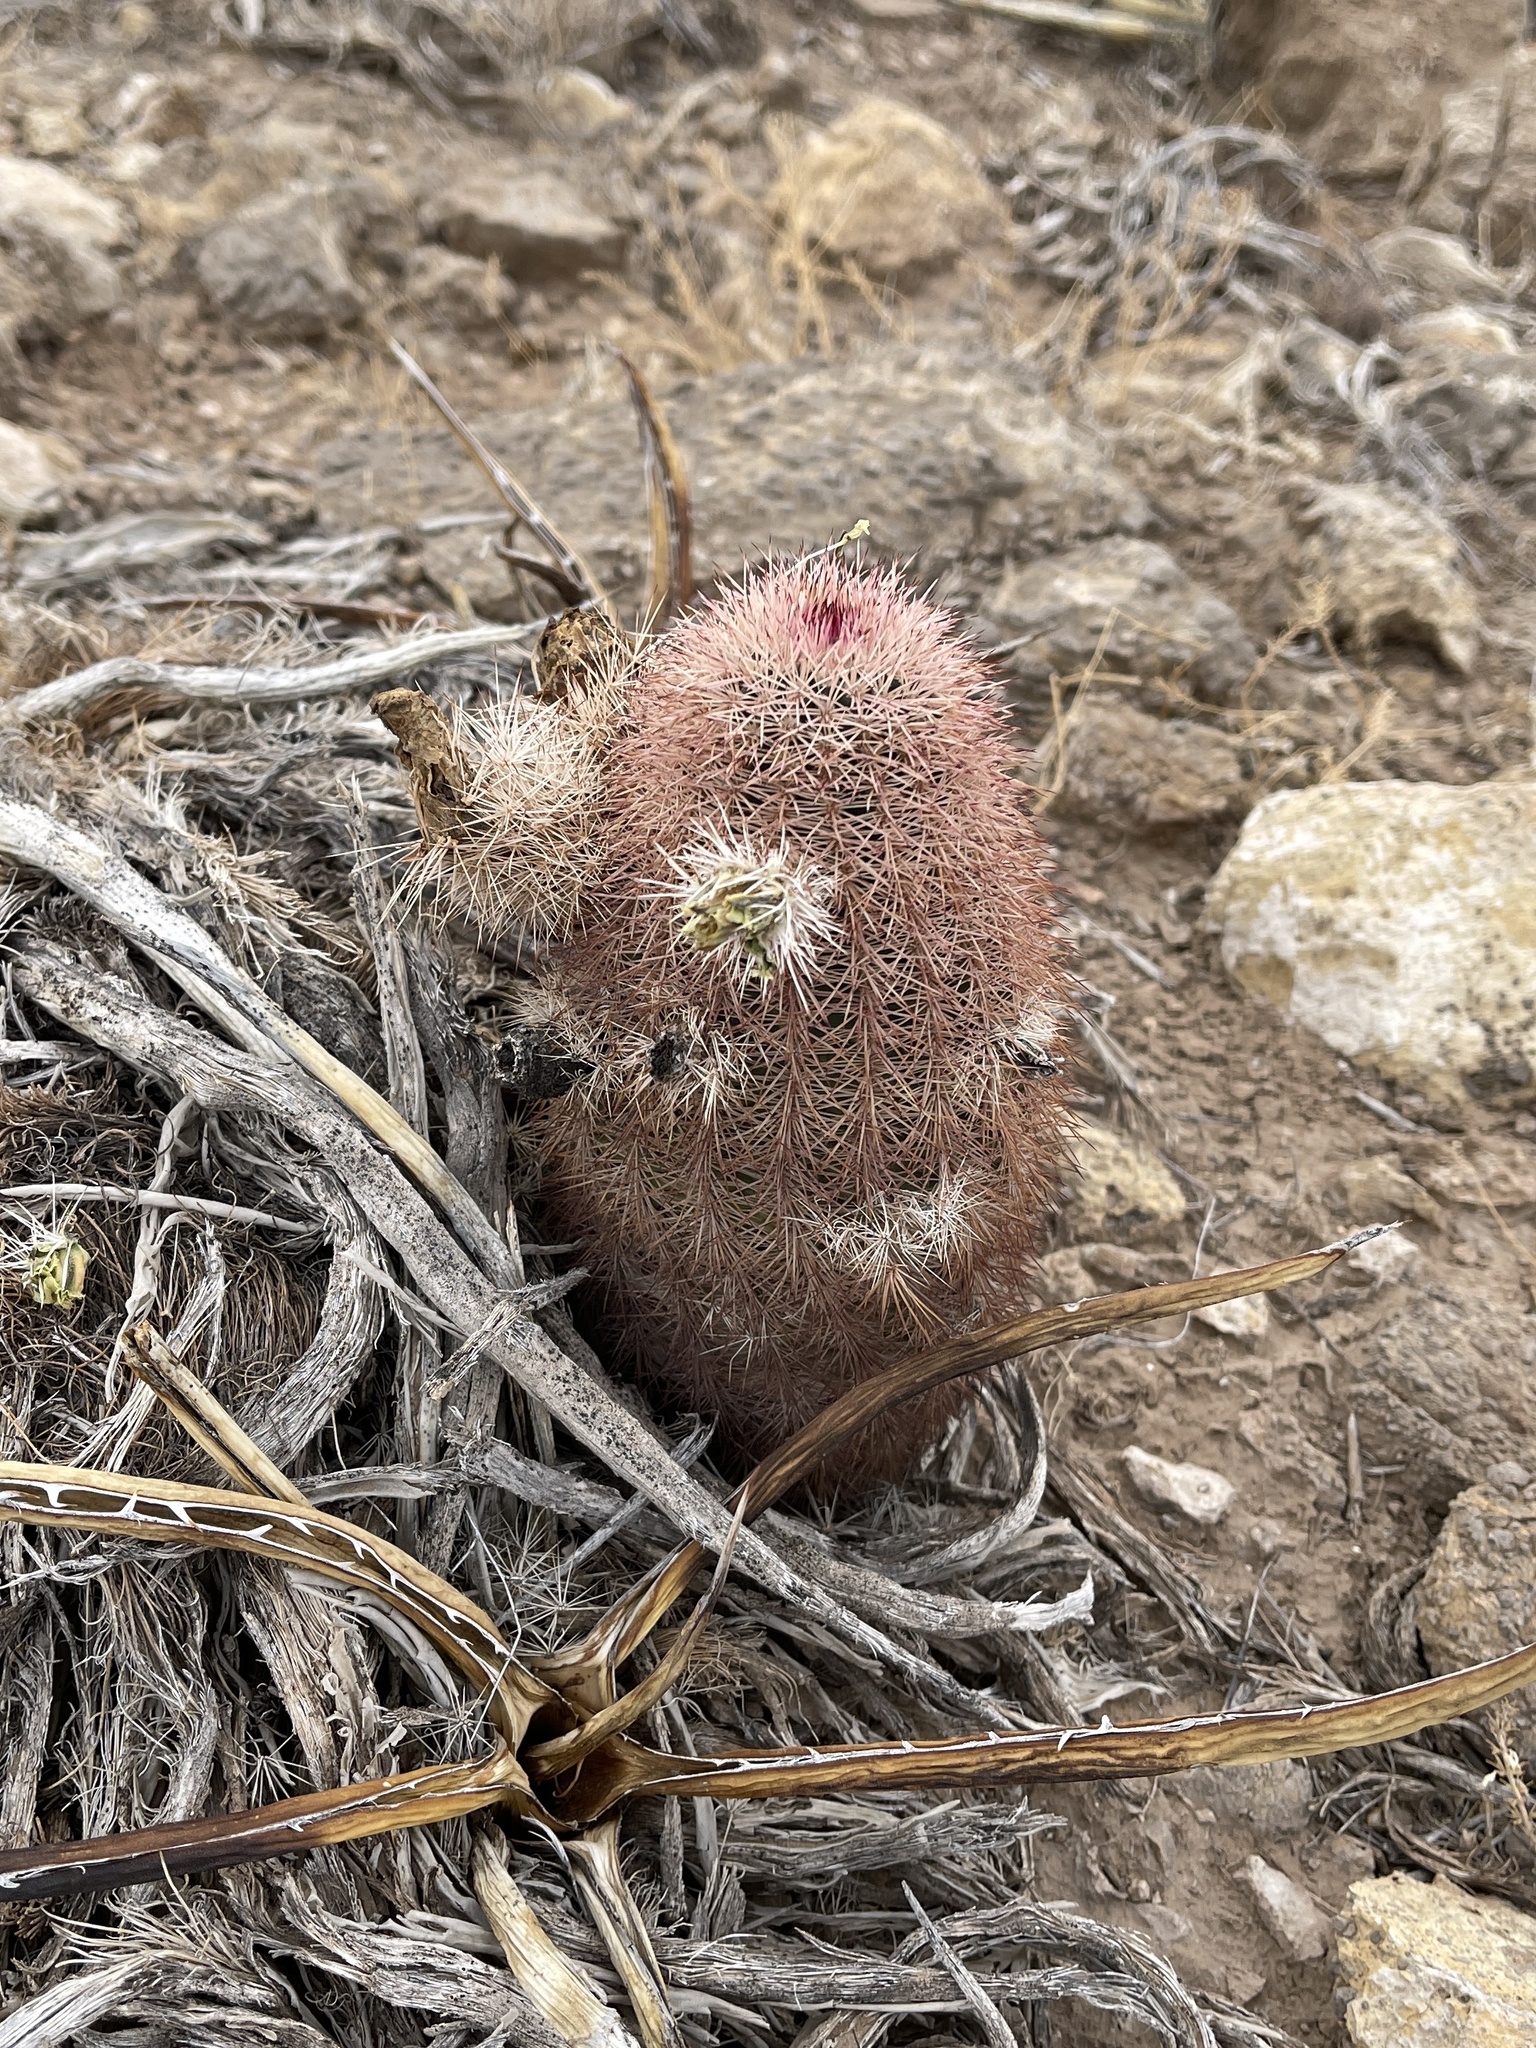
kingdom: Plantae
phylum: Tracheophyta
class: Magnoliopsida
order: Caryophyllales
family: Cactaceae
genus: Echinocereus
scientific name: Echinocereus dasyacanthus
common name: Spiny hedgehog cactus
